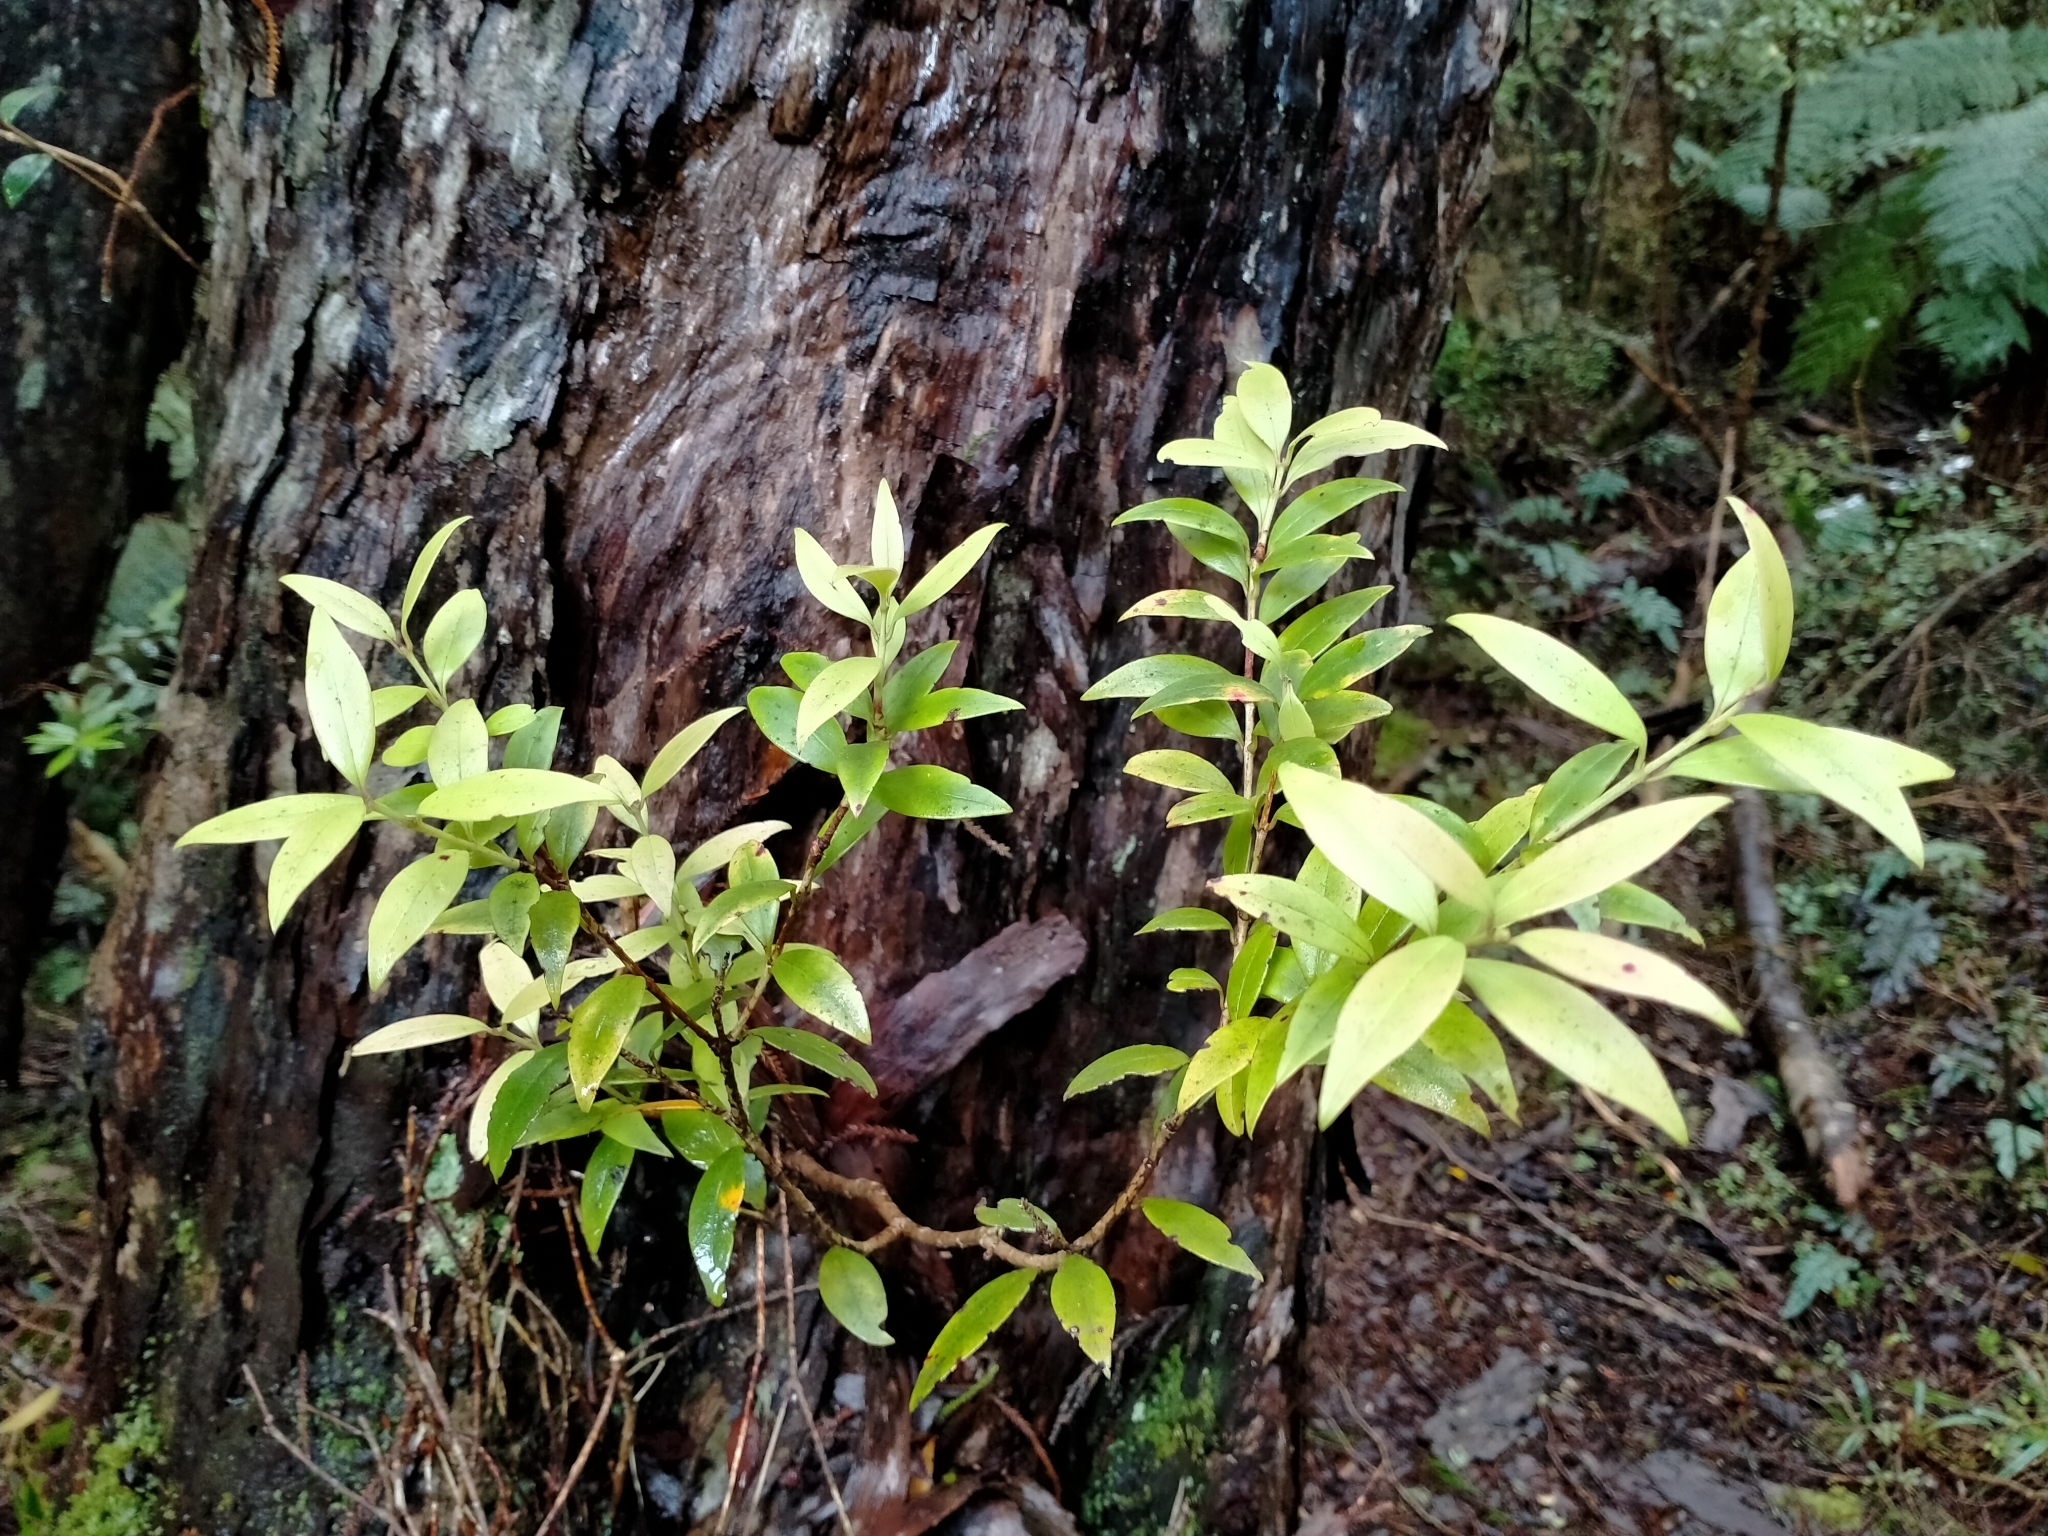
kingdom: Plantae
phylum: Tracheophyta
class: Magnoliopsida
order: Myrtales
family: Myrtaceae
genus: Metrosideros
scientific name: Metrosideros umbellata
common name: Southern rata
